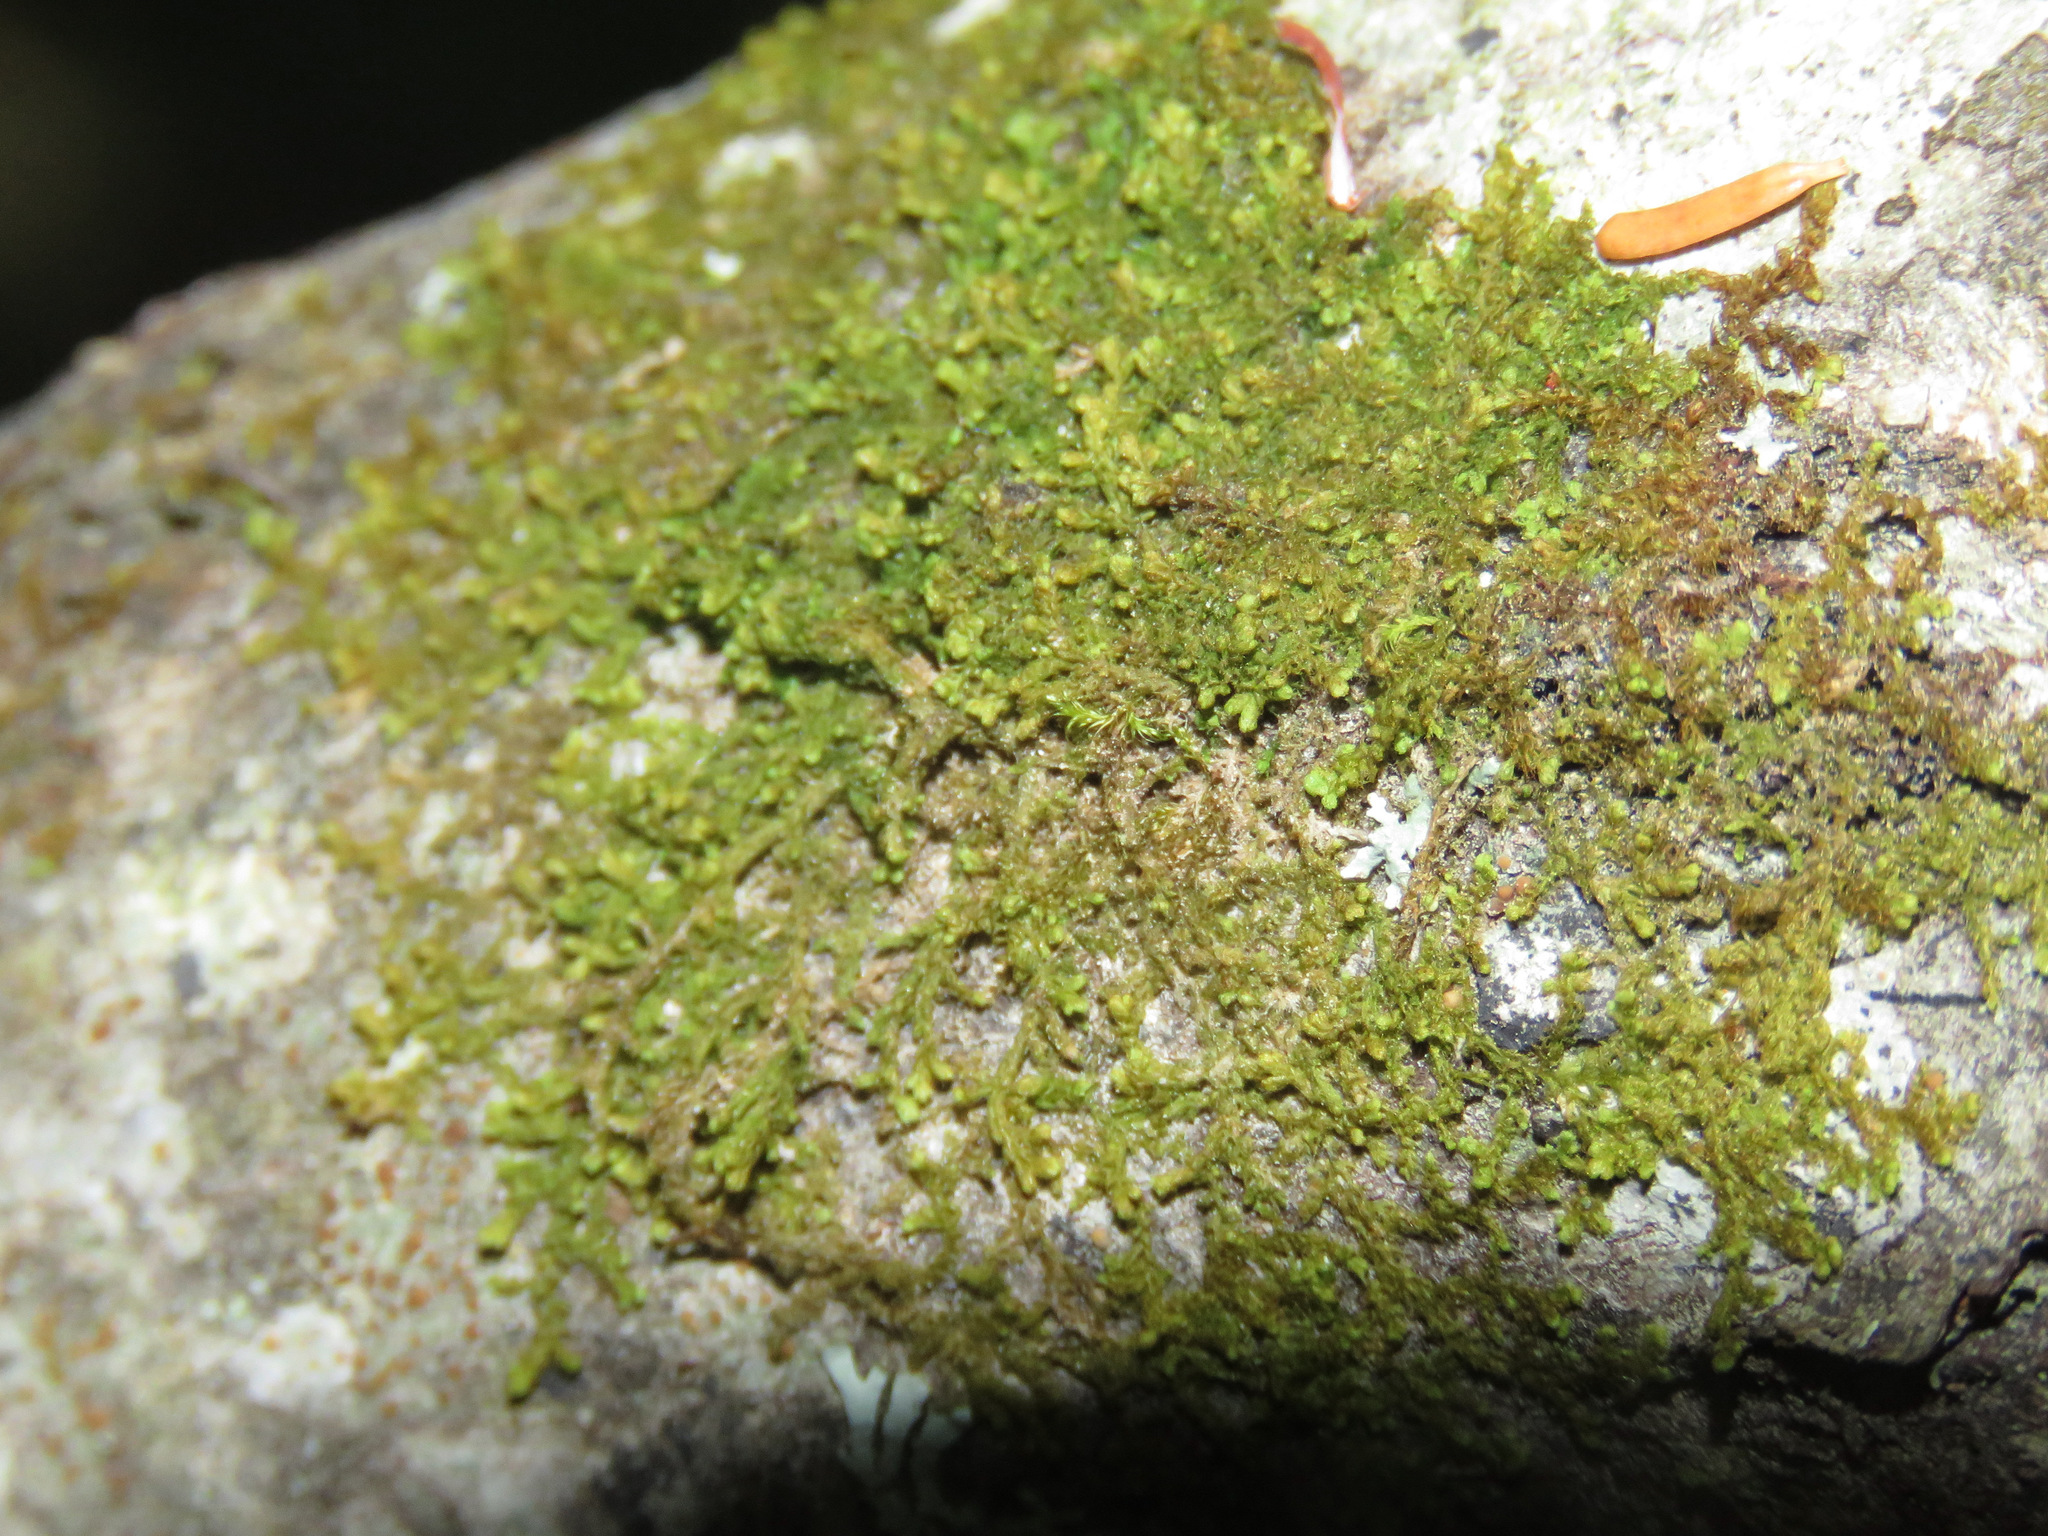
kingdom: Plantae
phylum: Marchantiophyta
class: Jungermanniopsida
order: Ptilidiales
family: Ptilidiaceae
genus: Ptilidium
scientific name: Ptilidium pulcherrimum
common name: Tree fringewort
